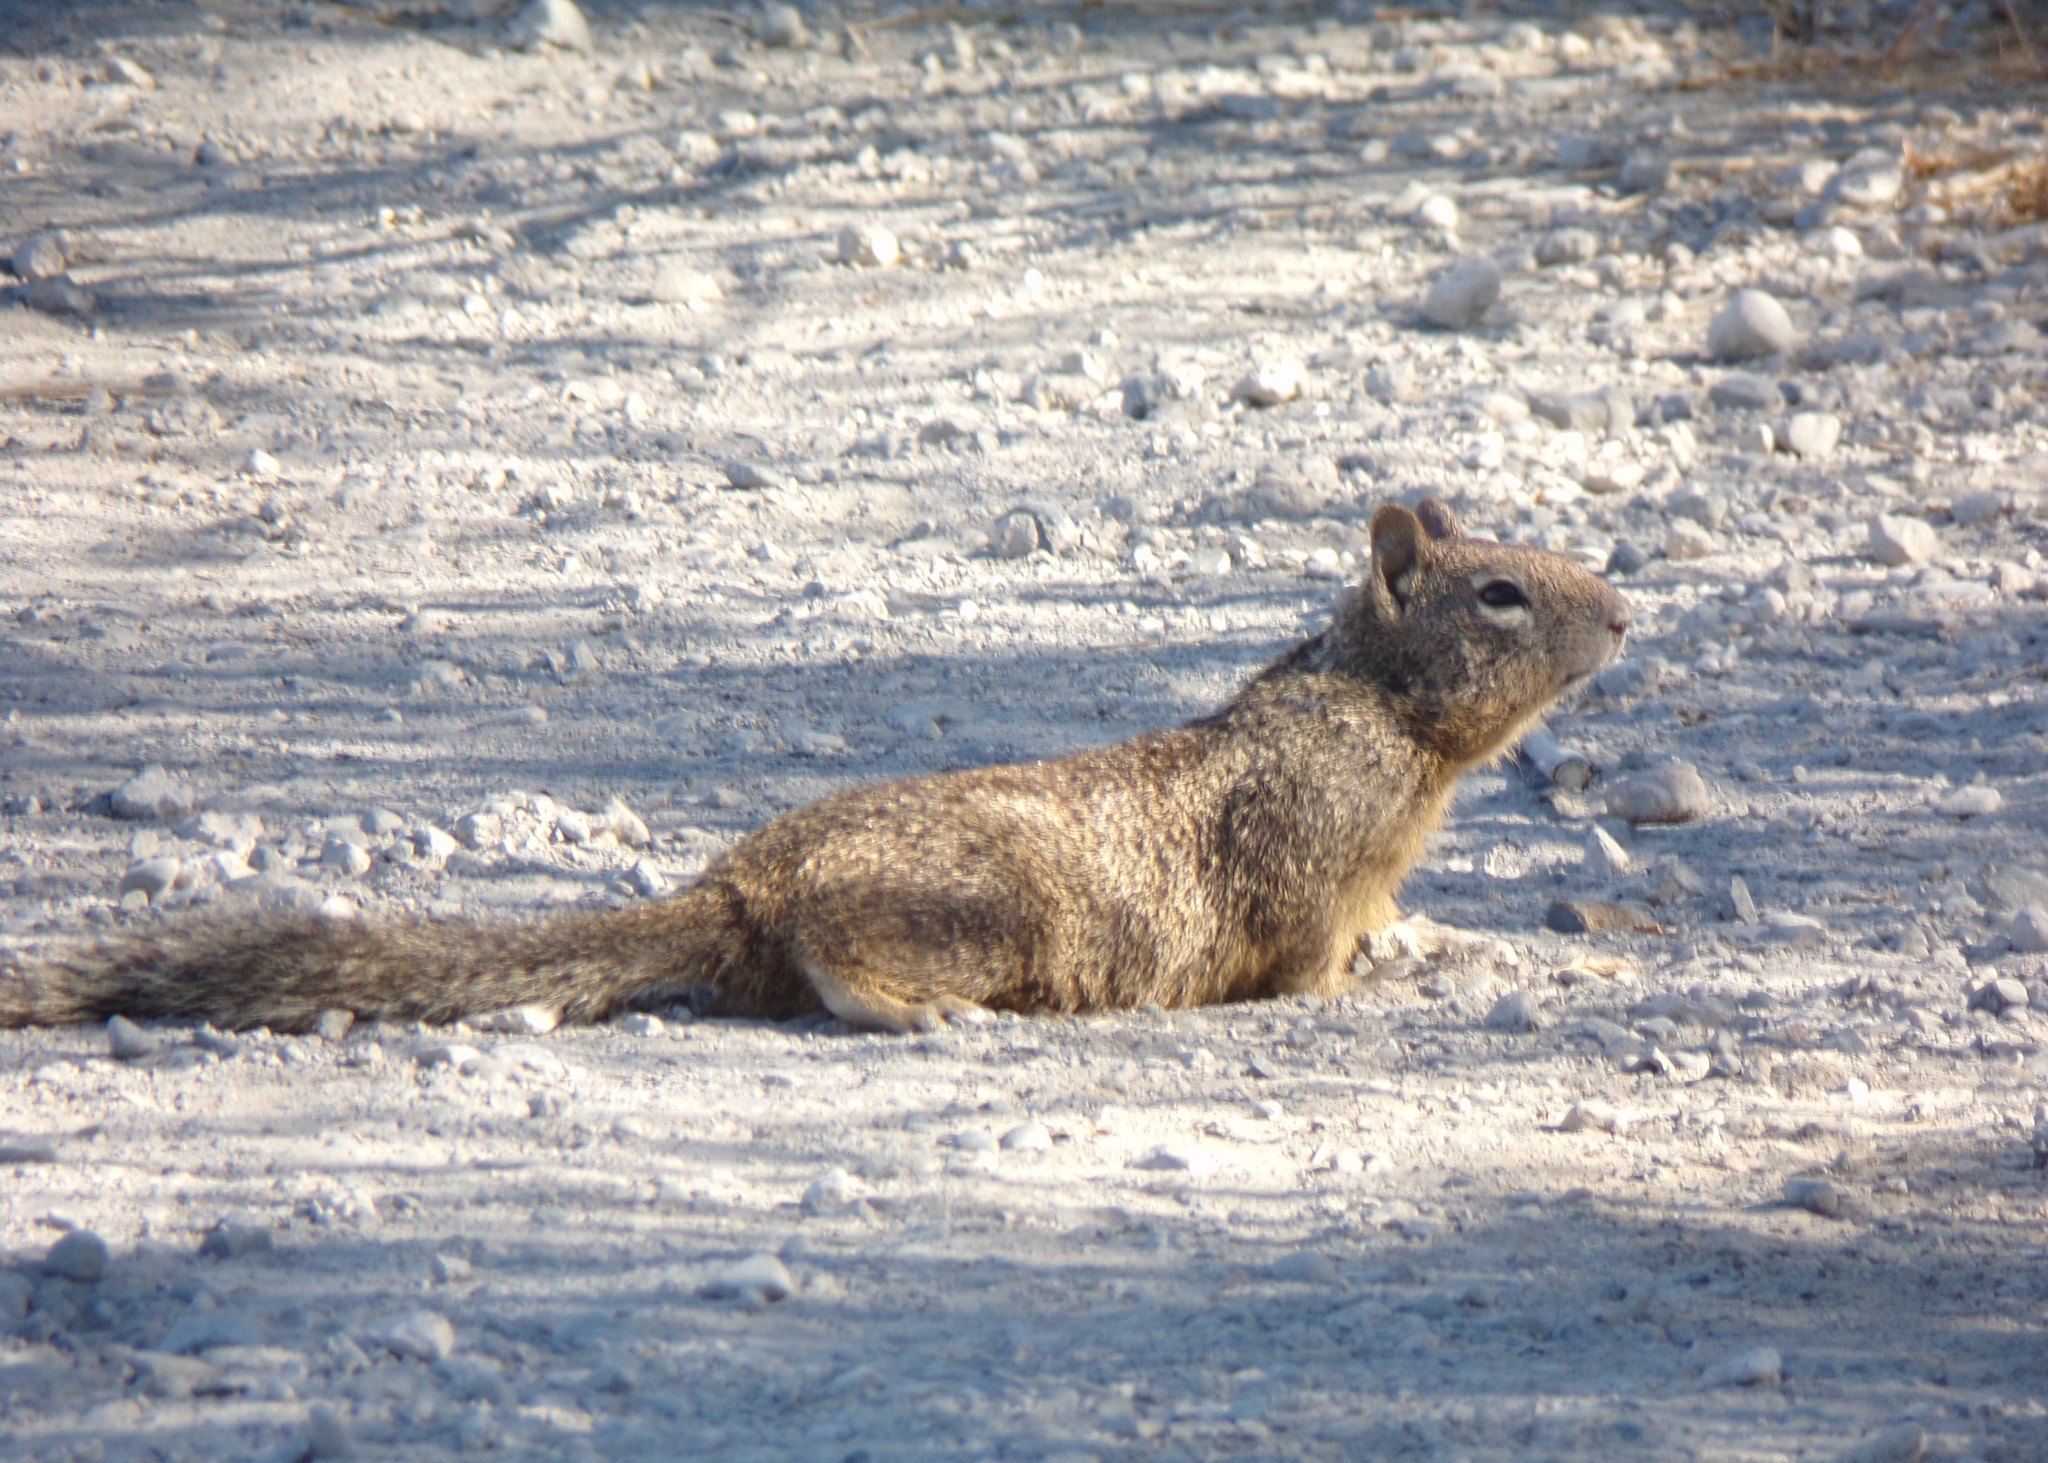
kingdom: Animalia
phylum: Chordata
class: Mammalia
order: Rodentia
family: Sciuridae
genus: Otospermophilus
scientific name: Otospermophilus beecheyi
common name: California ground squirrel
